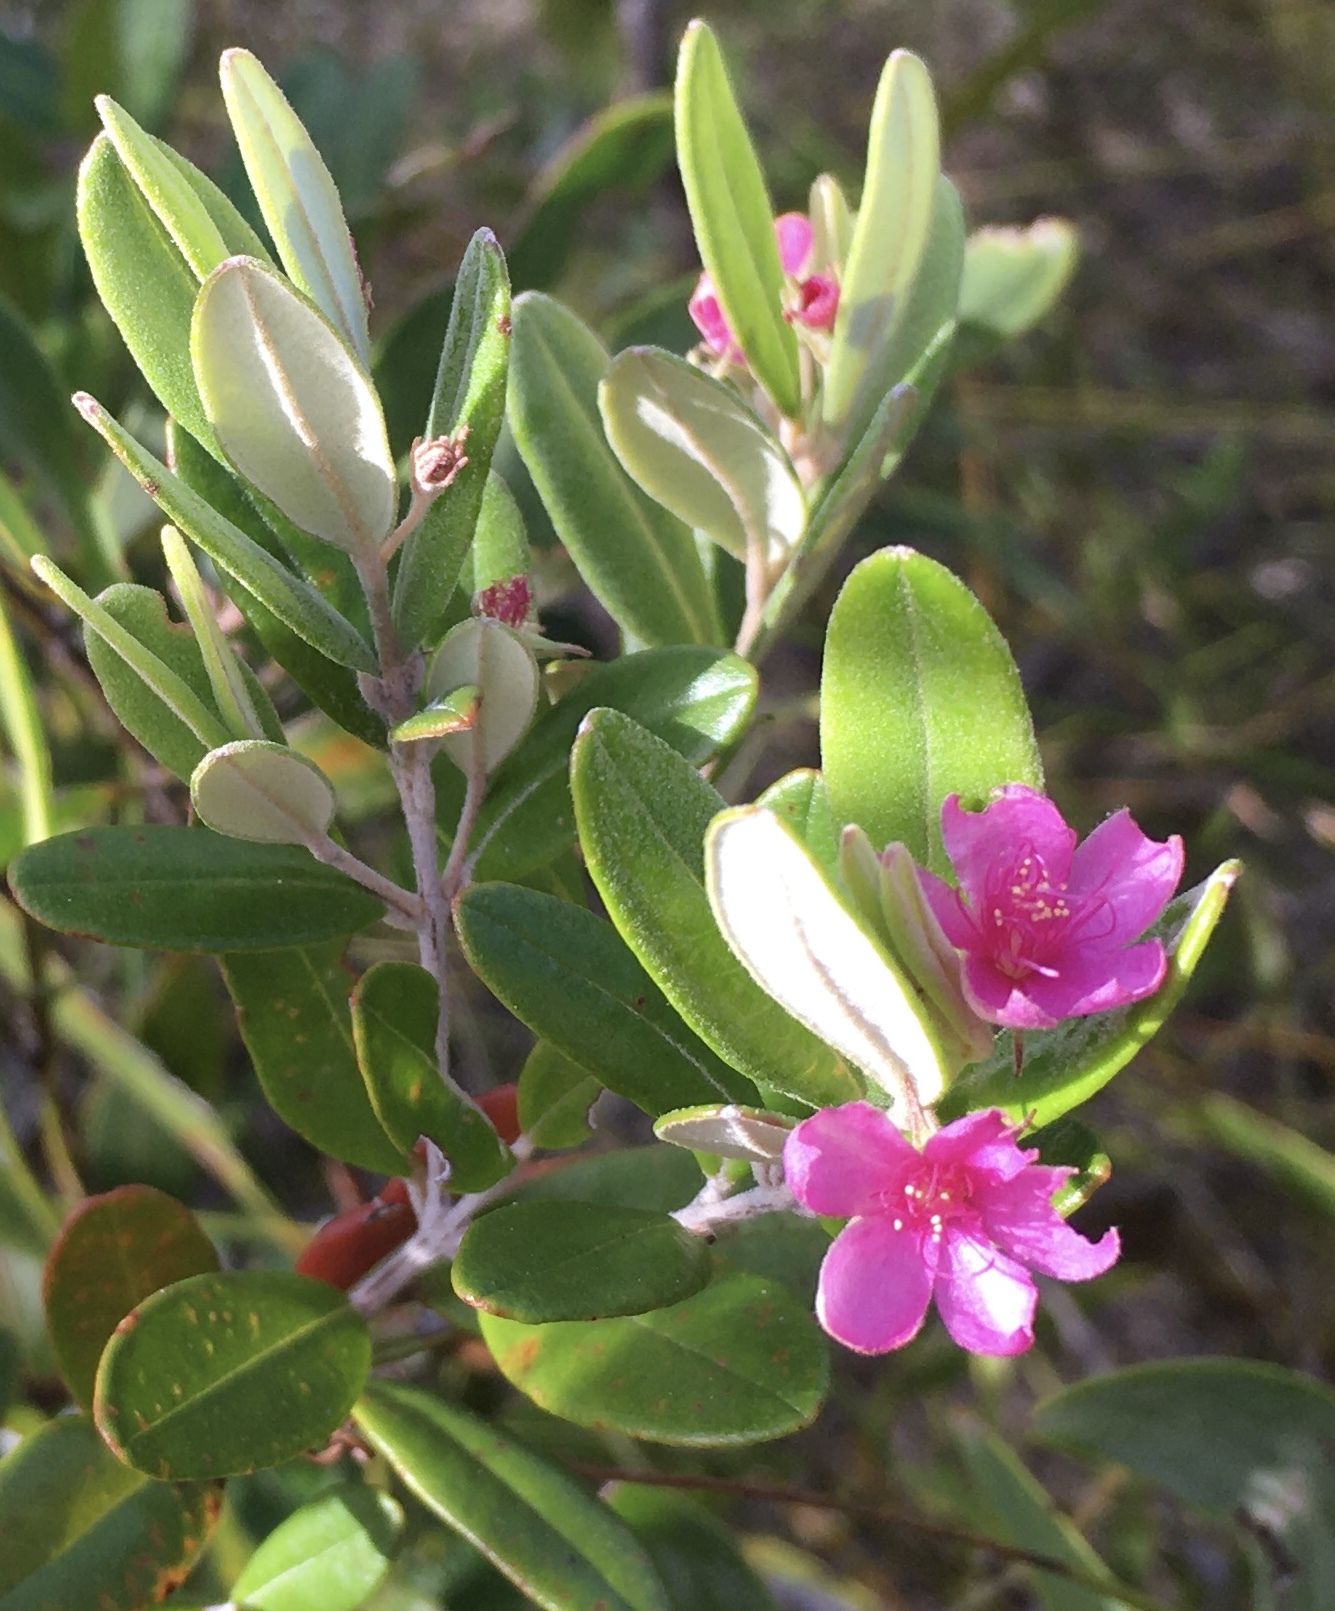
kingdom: Plantae
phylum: Tracheophyta
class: Magnoliopsida
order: Myrtales
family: Myrtaceae
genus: Lithomyrtus
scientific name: Lithomyrtus obtusa
